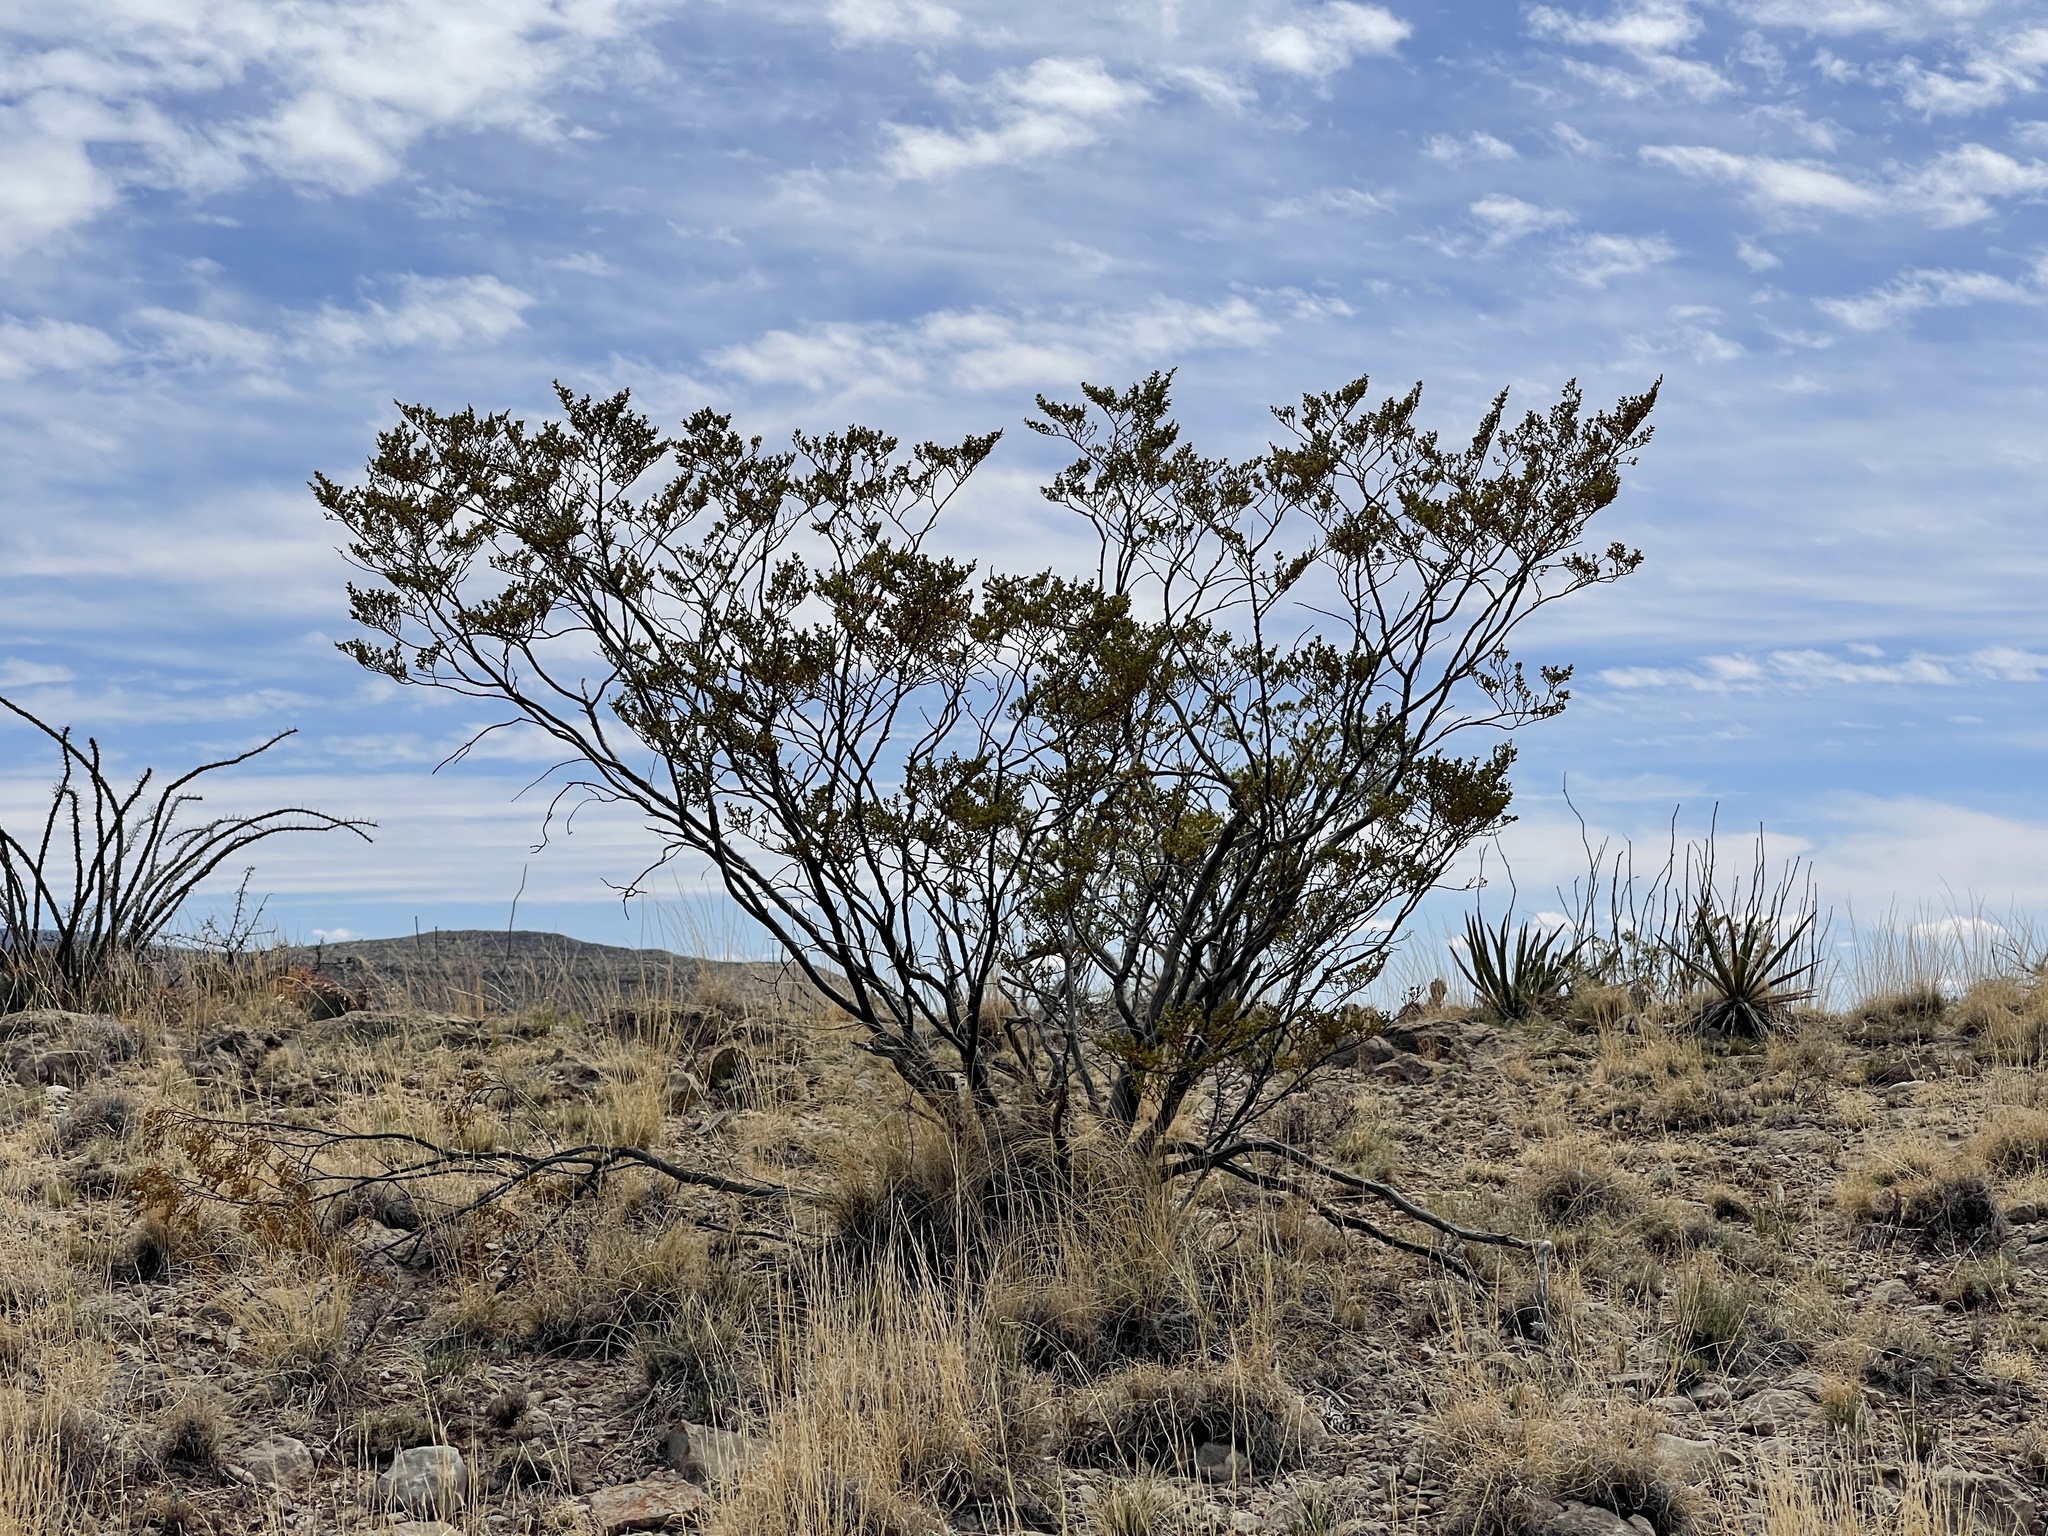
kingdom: Plantae
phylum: Tracheophyta
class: Magnoliopsida
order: Zygophyllales
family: Zygophyllaceae
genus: Larrea
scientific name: Larrea tridentata
